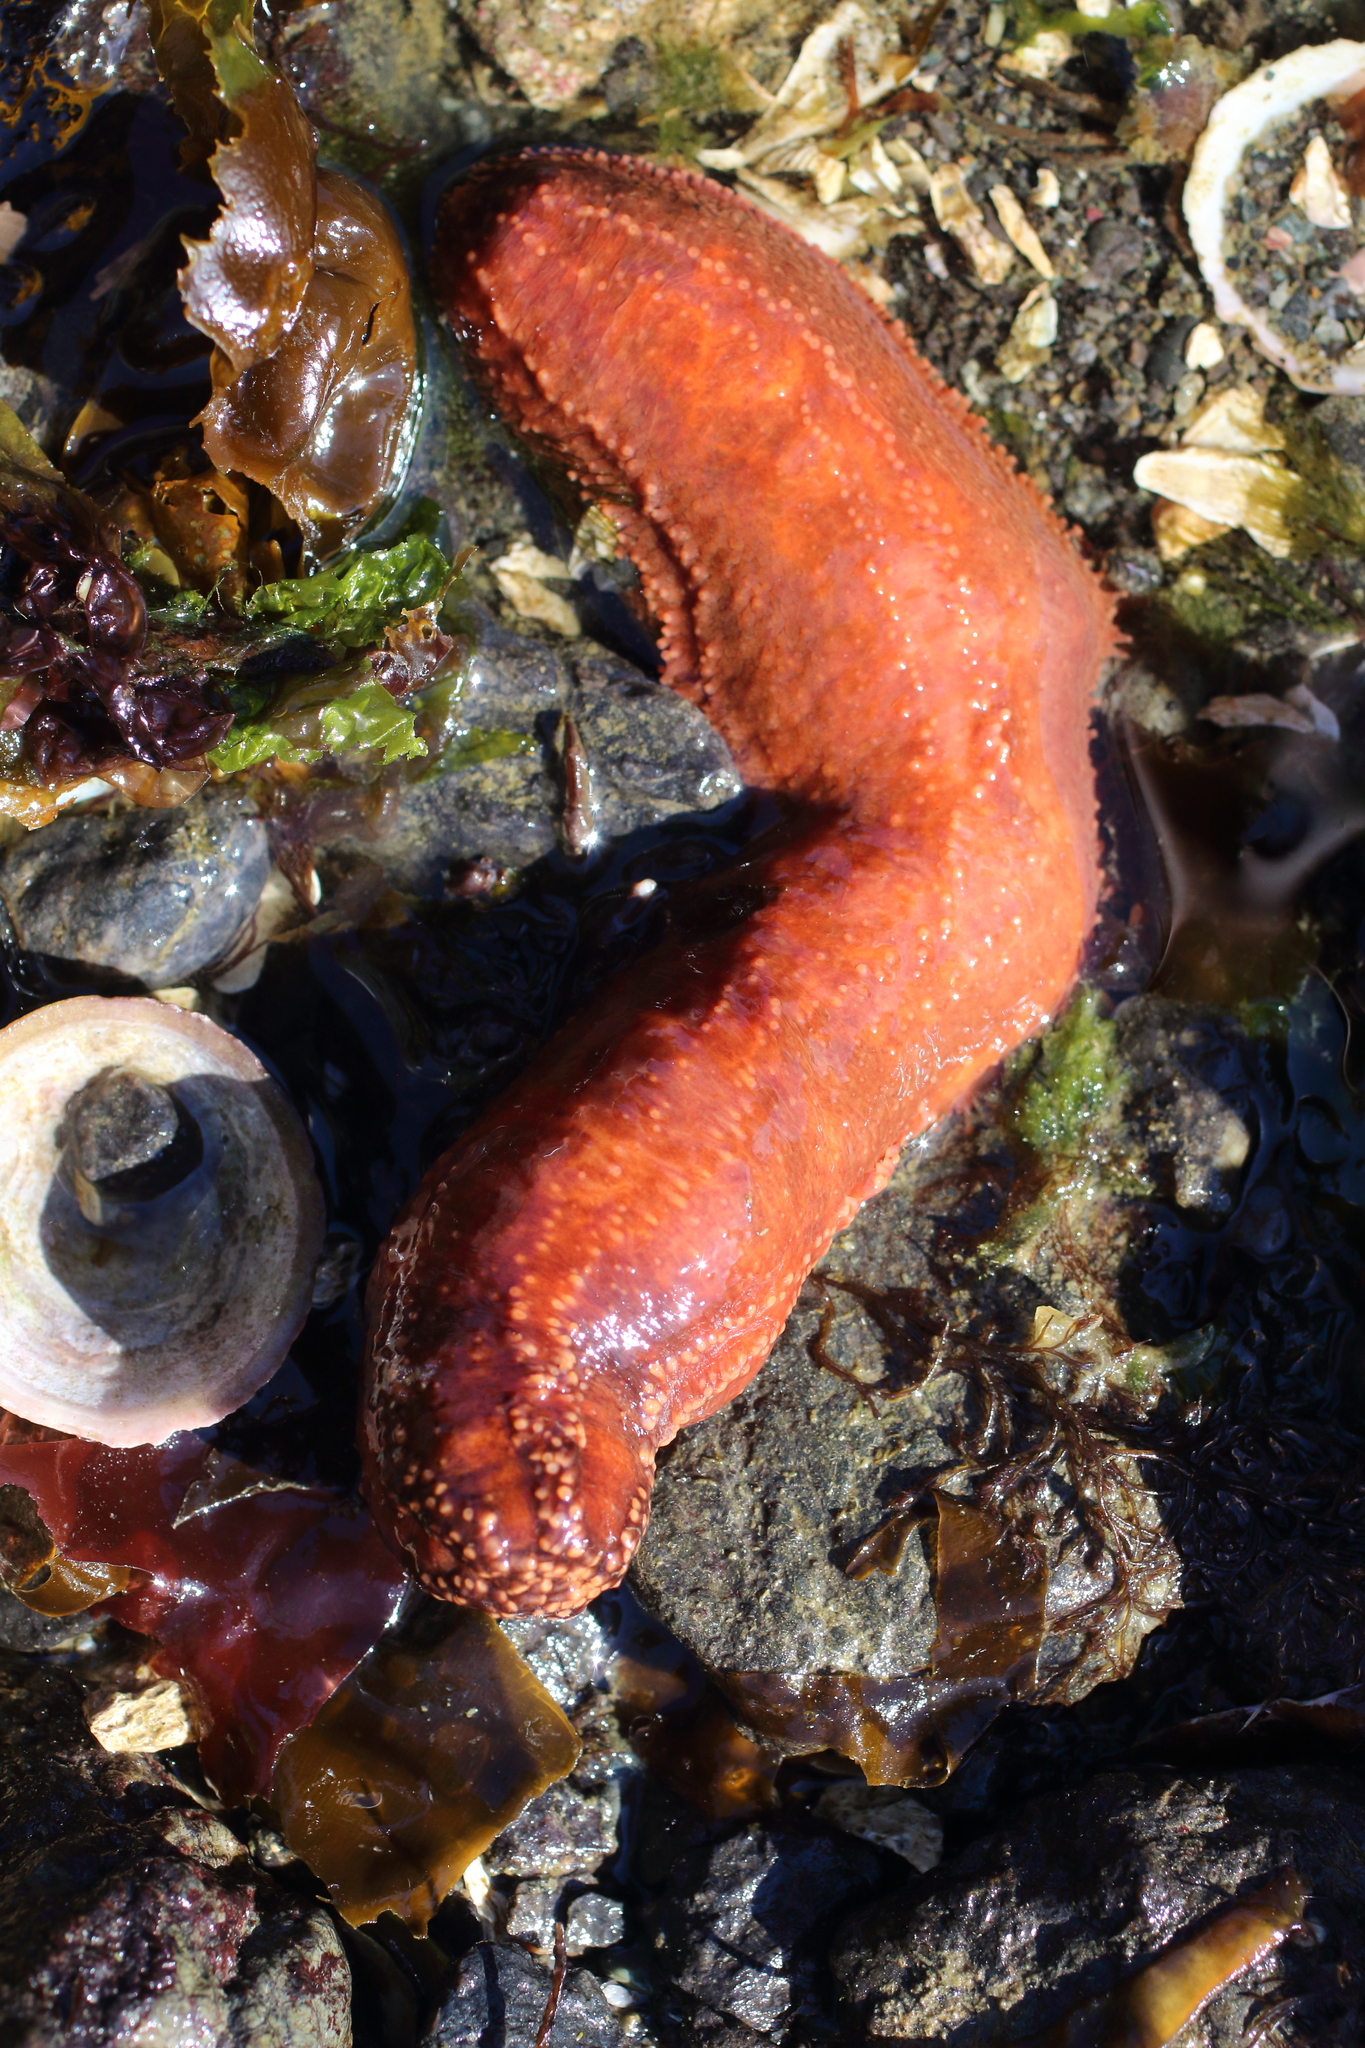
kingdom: Animalia
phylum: Echinodermata
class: Holothuroidea
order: Dendrochirotida
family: Cucumariidae
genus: Cucumaria
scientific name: Cucumaria miniata
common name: Orange sea cucumber
